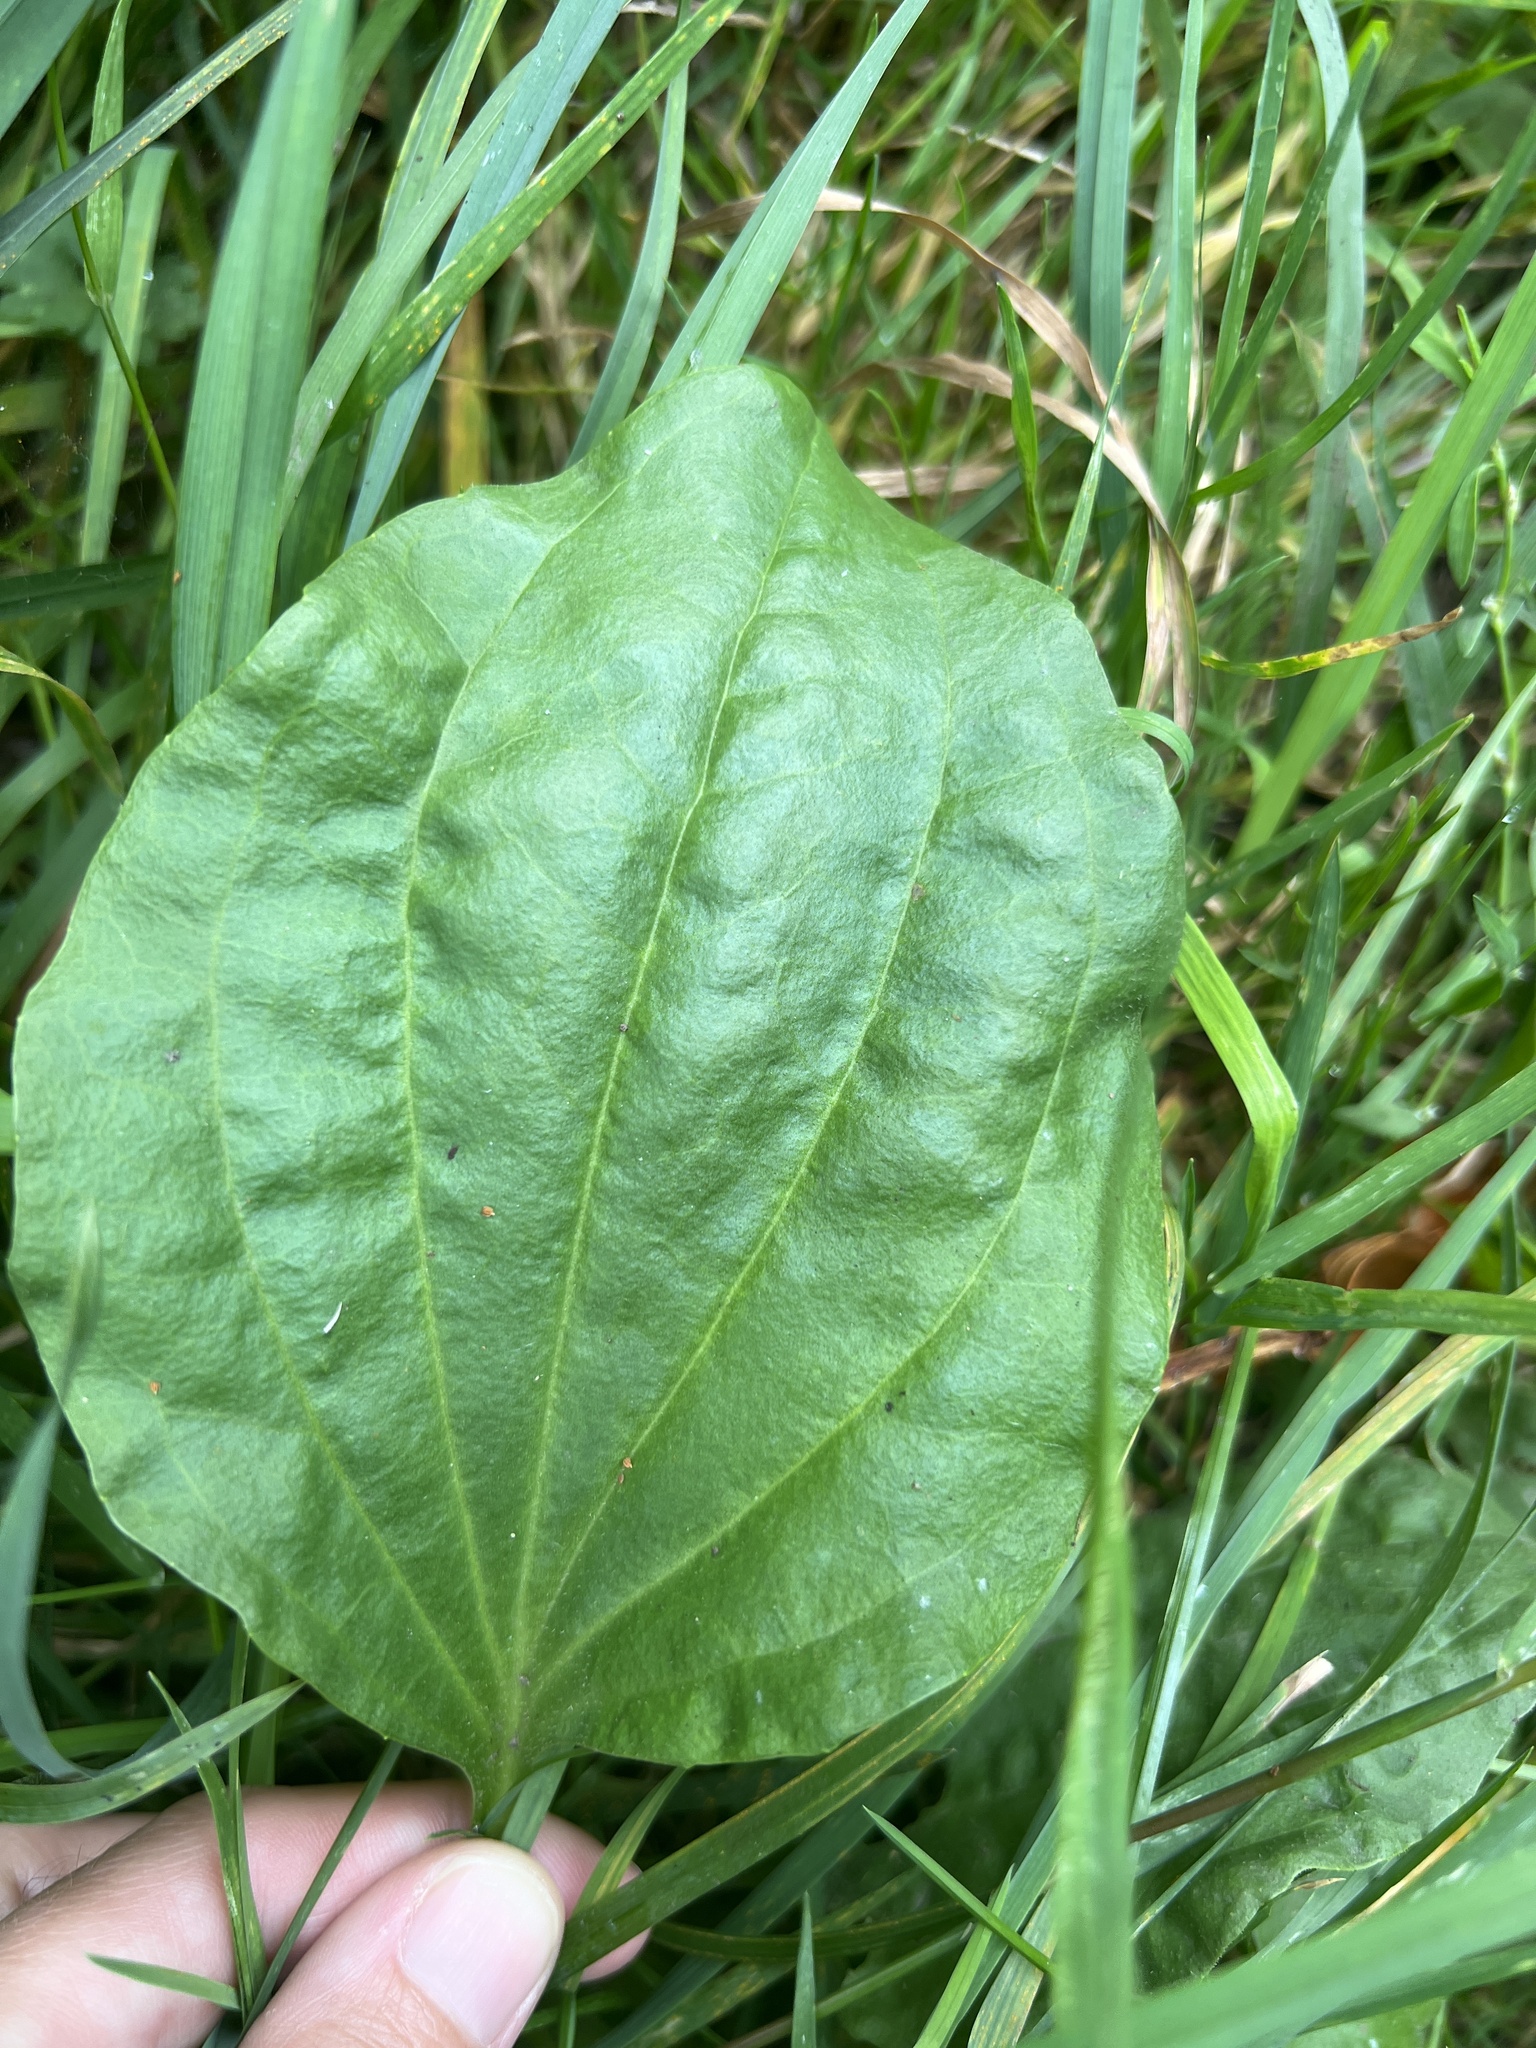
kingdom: Plantae
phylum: Tracheophyta
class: Magnoliopsida
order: Lamiales
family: Plantaginaceae
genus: Plantago
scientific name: Plantago major
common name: Common plantain
